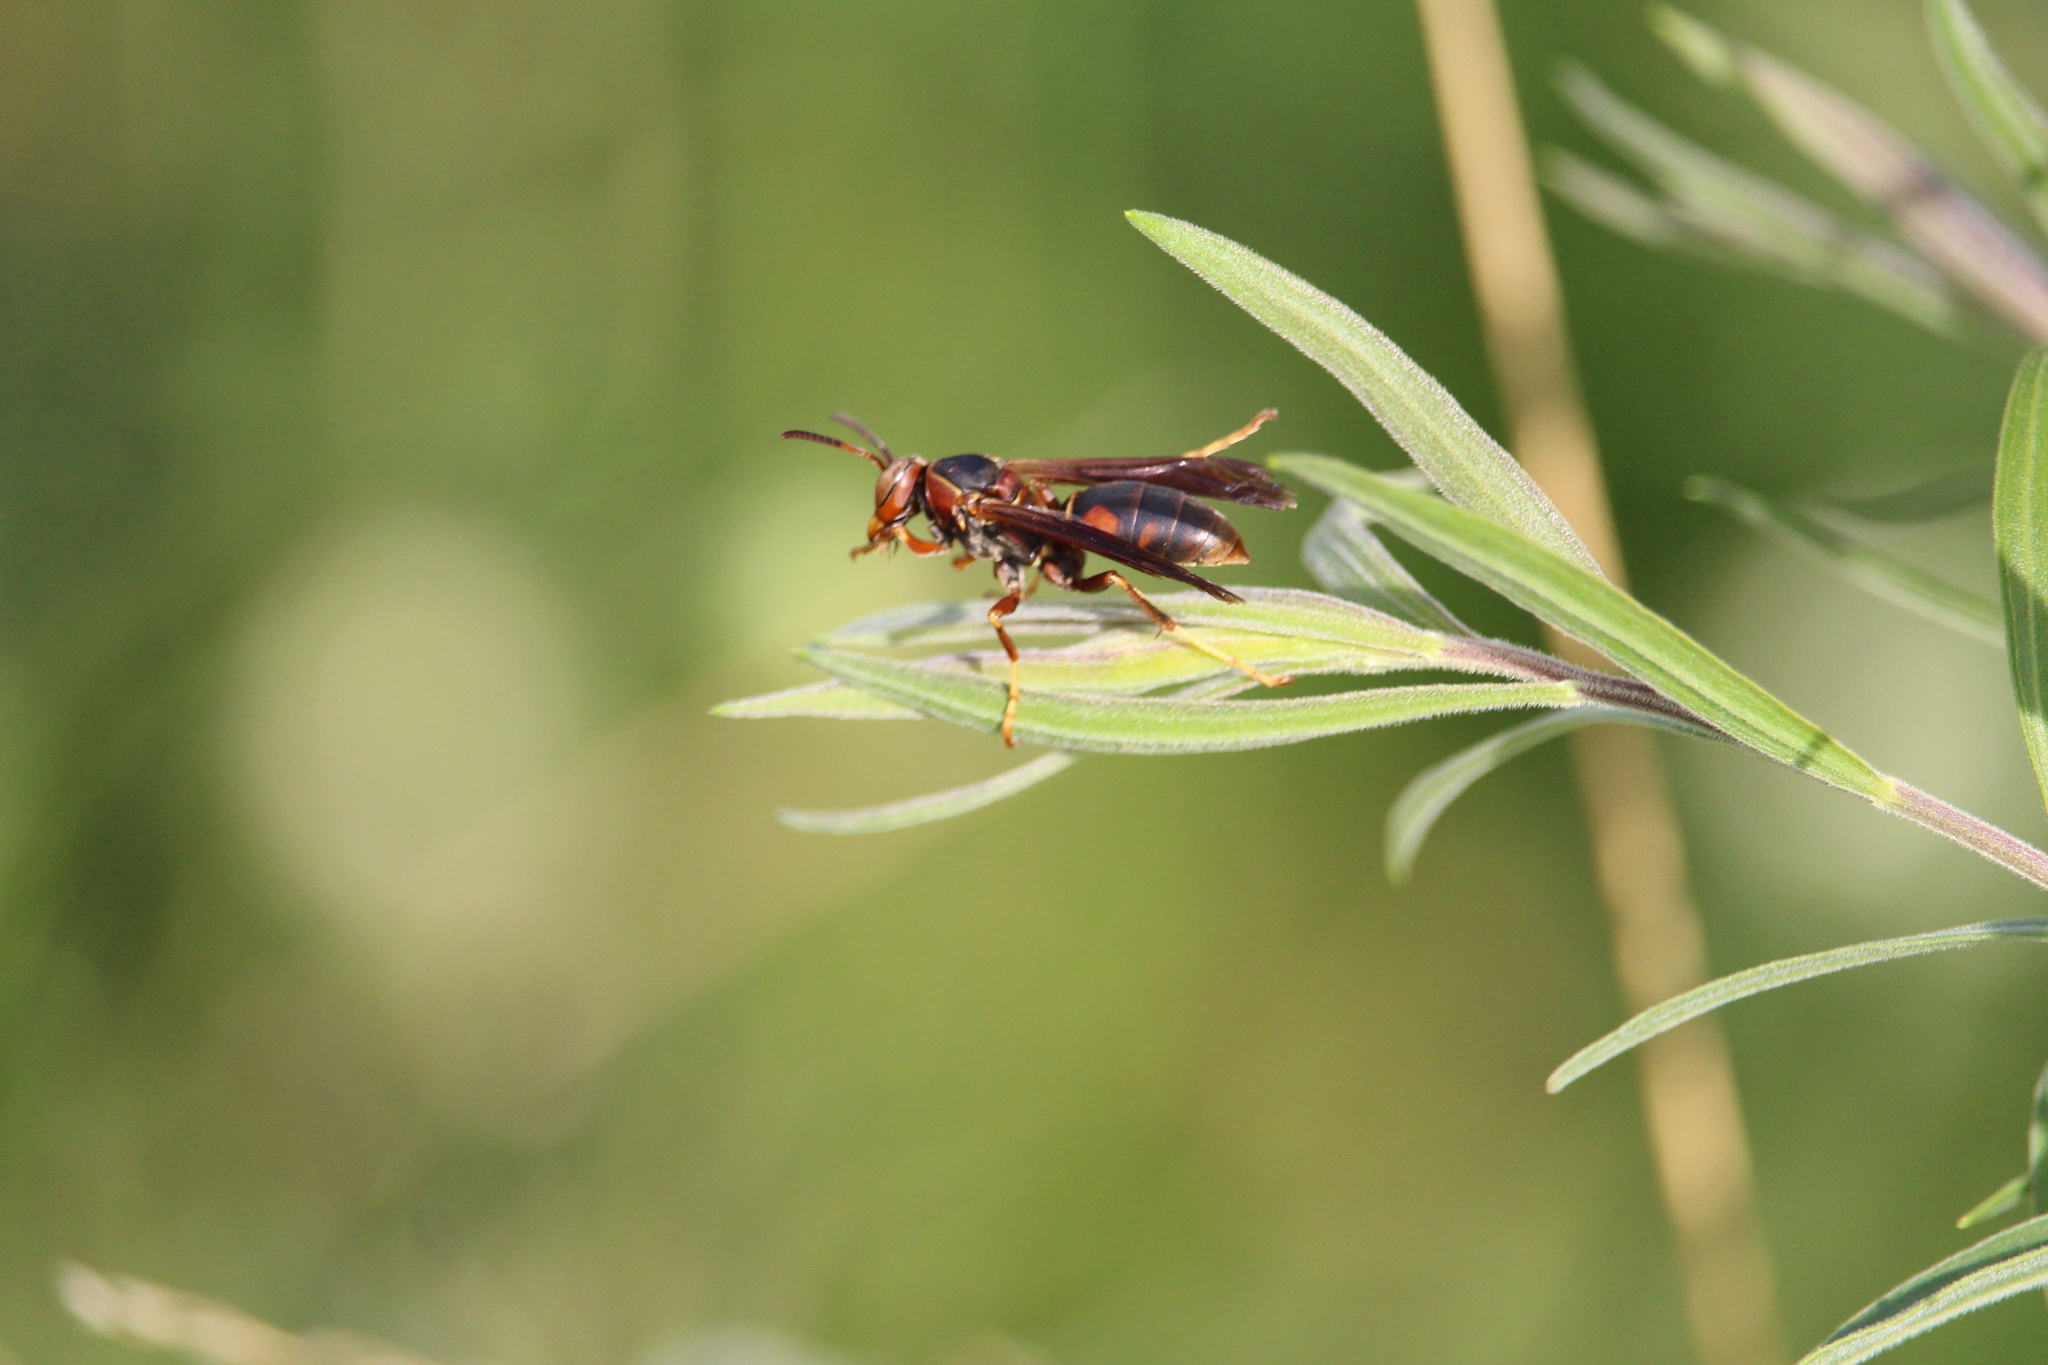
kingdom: Animalia
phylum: Arthropoda
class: Insecta
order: Hymenoptera
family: Eumenidae
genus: Polistes
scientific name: Polistes fuscatus
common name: Dark paper wasp
